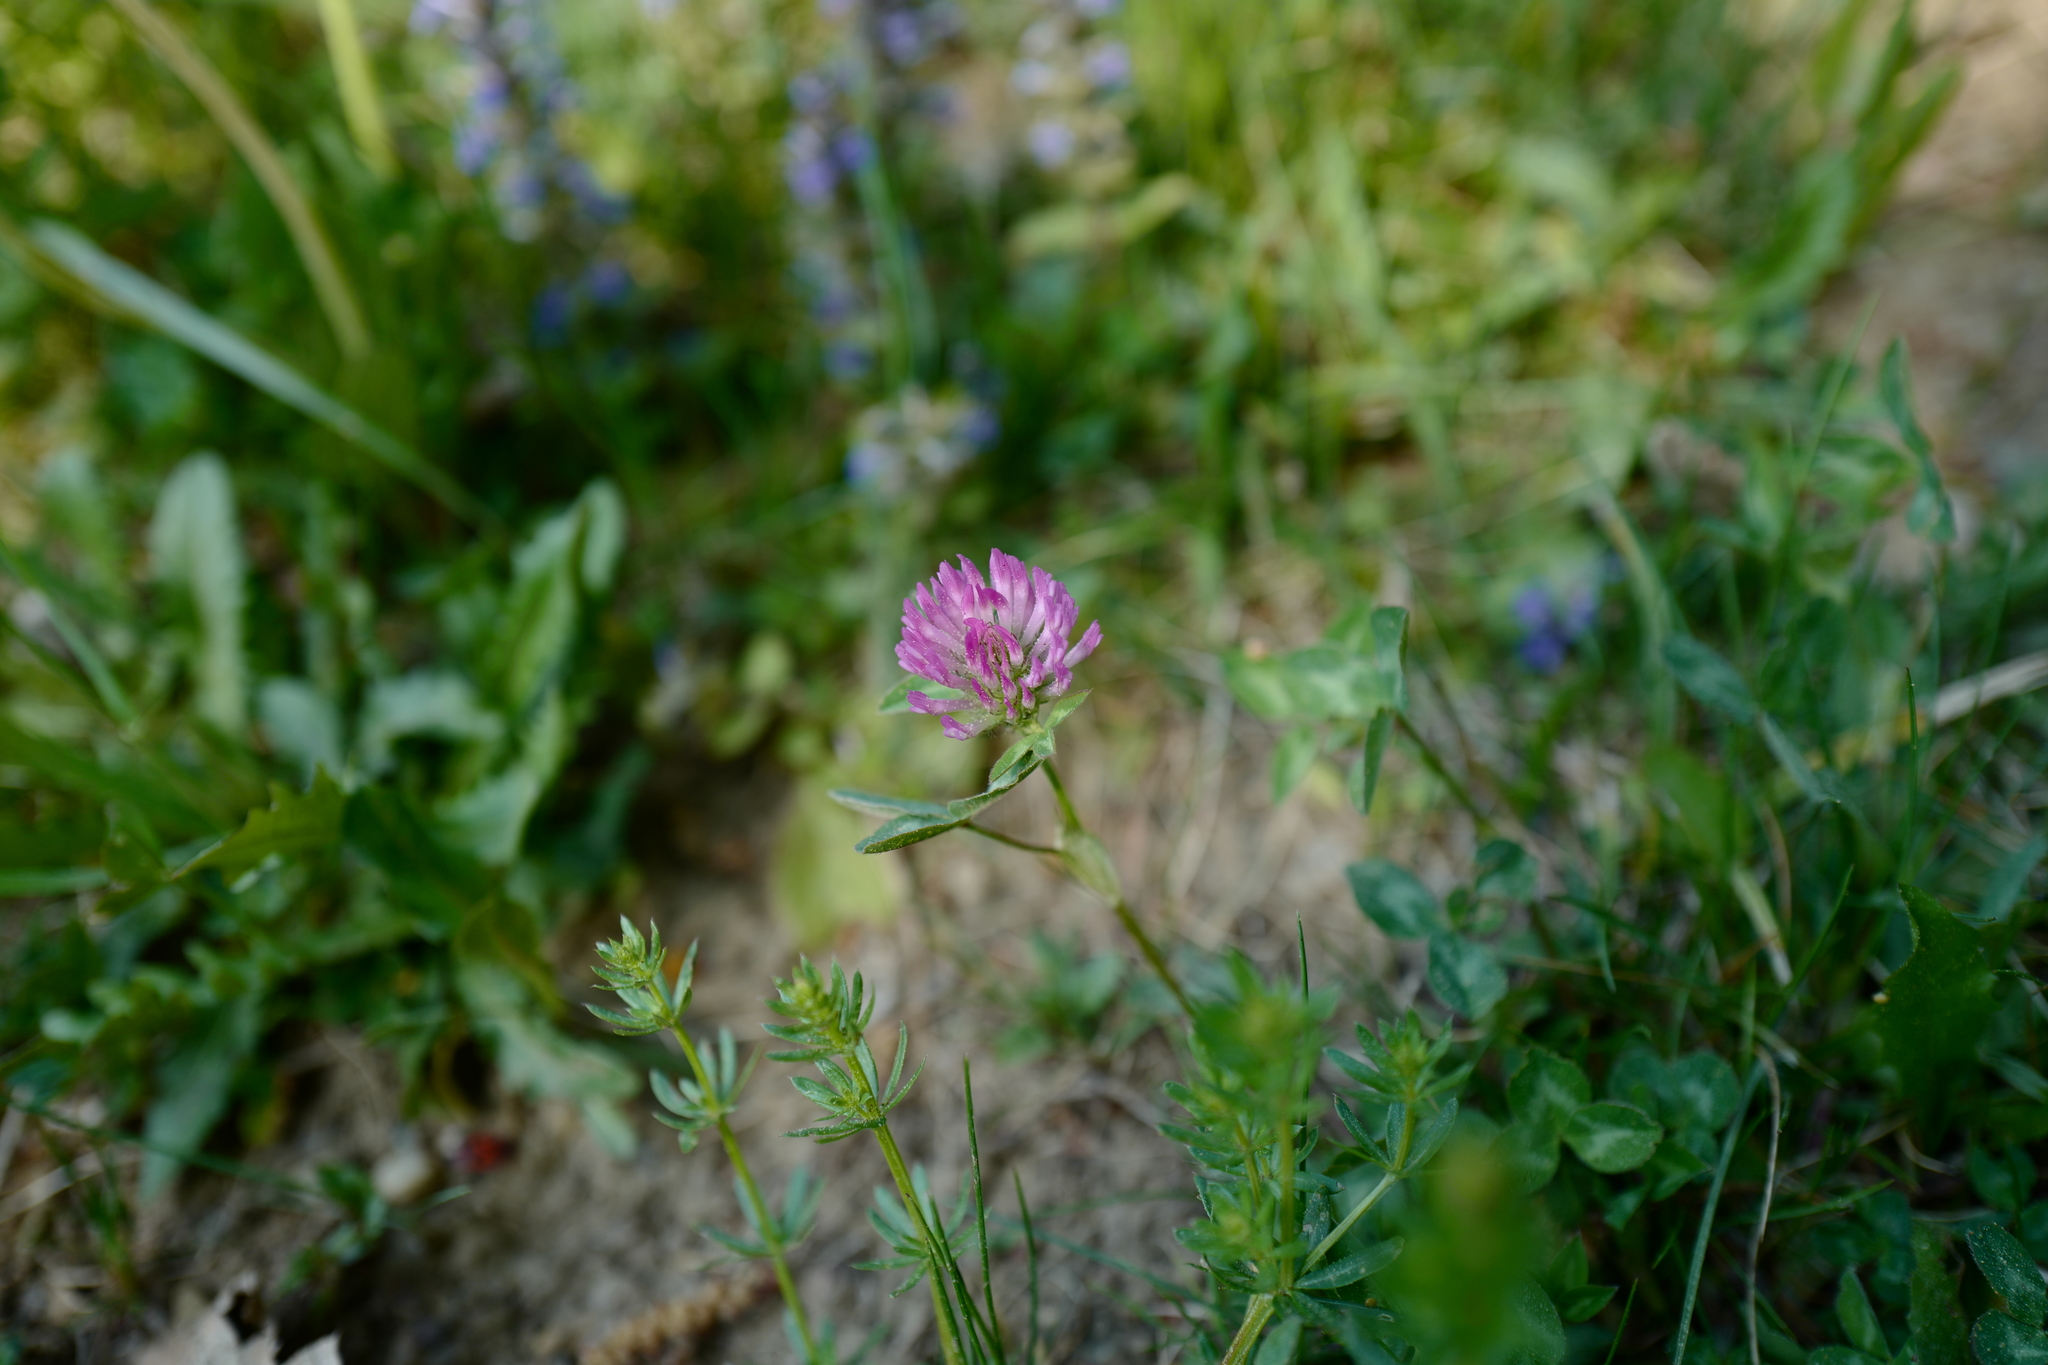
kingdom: Plantae
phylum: Tracheophyta
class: Magnoliopsida
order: Fabales
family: Fabaceae
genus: Trifolium
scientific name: Trifolium pratense
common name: Red clover
